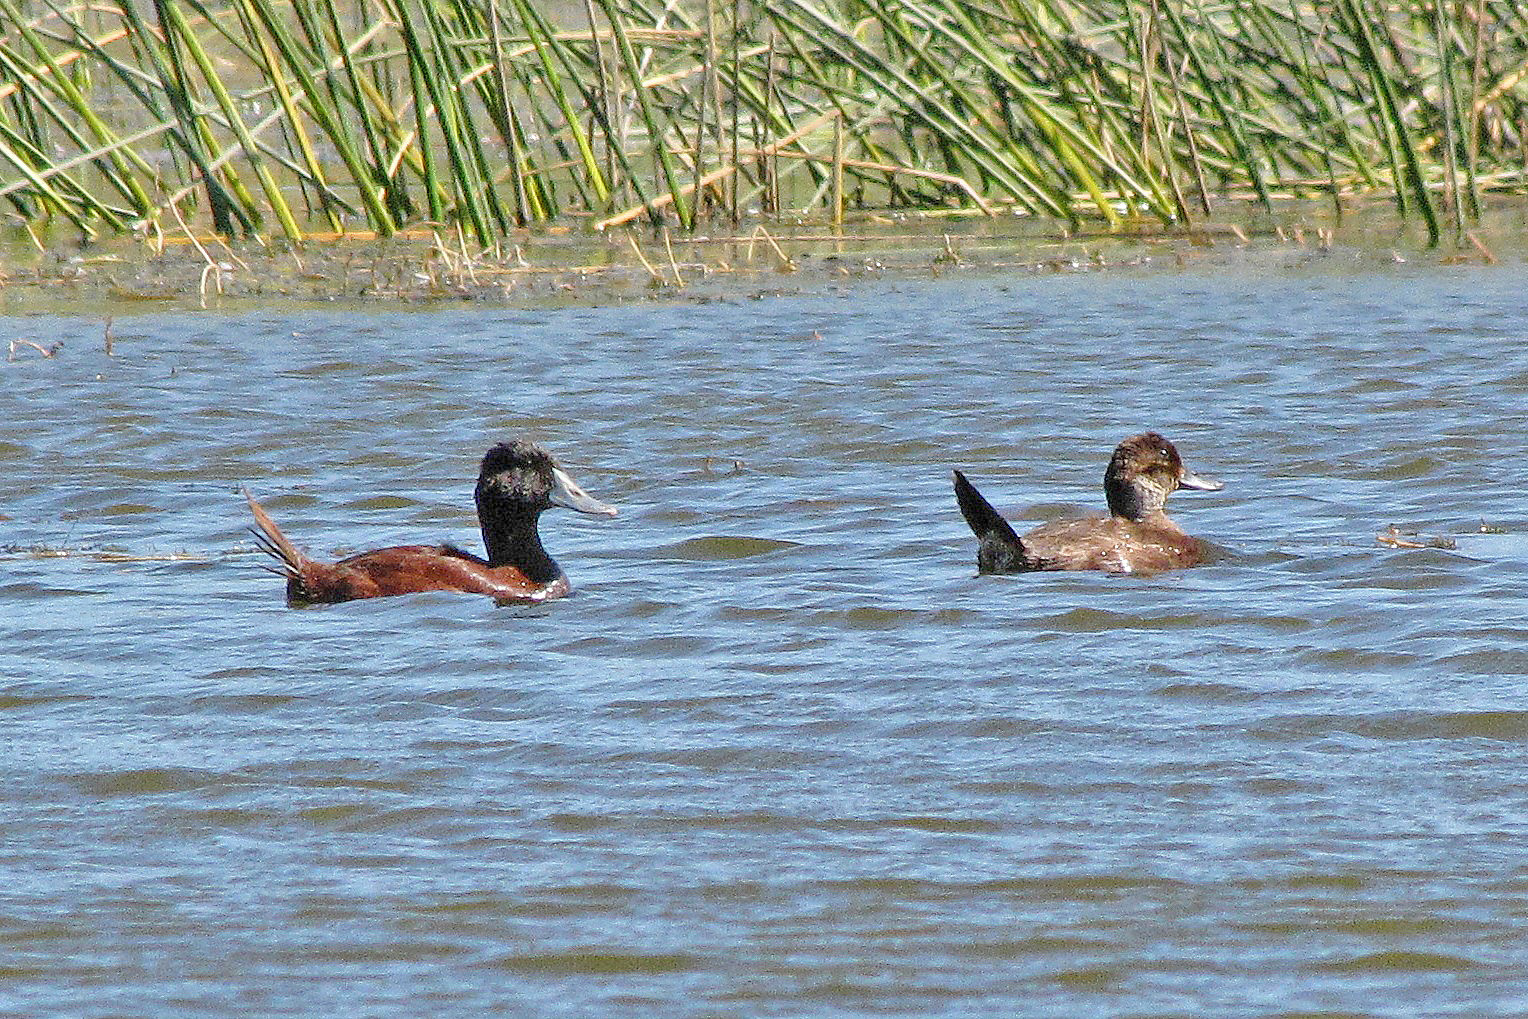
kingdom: Animalia
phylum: Chordata
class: Aves
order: Anseriformes
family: Anatidae
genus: Oxyura
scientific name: Oxyura ferruginea
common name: Andean duck
